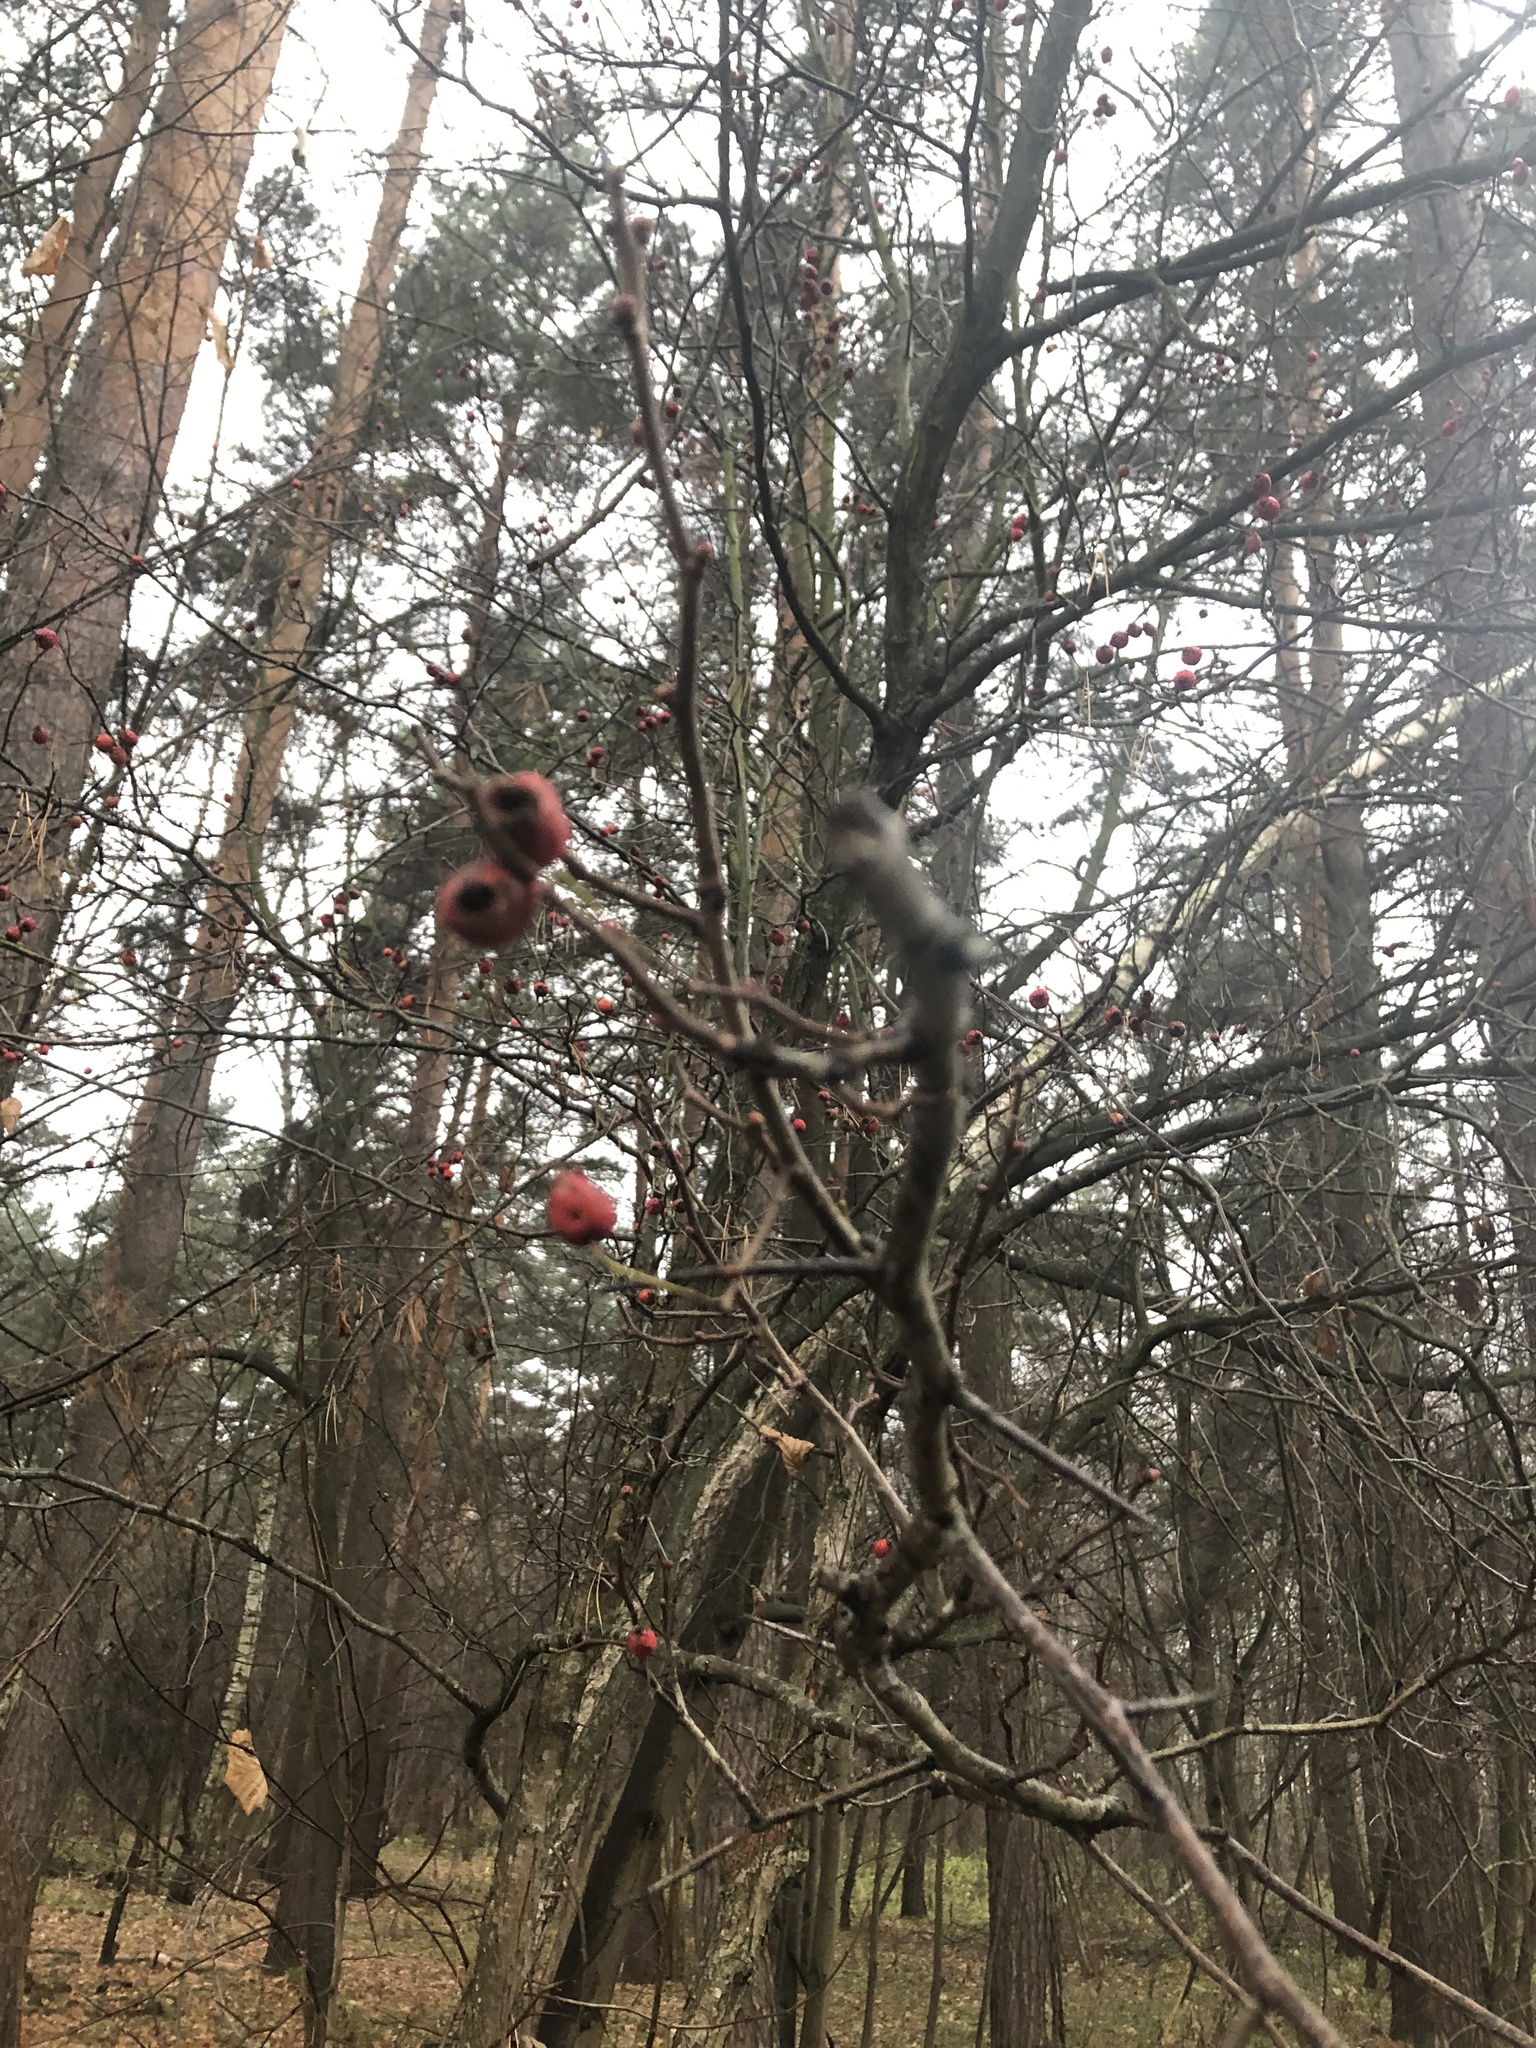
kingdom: Plantae
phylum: Tracheophyta
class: Magnoliopsida
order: Rosales
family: Rosaceae
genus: Malus
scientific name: Malus baccata
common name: Siberian crab
